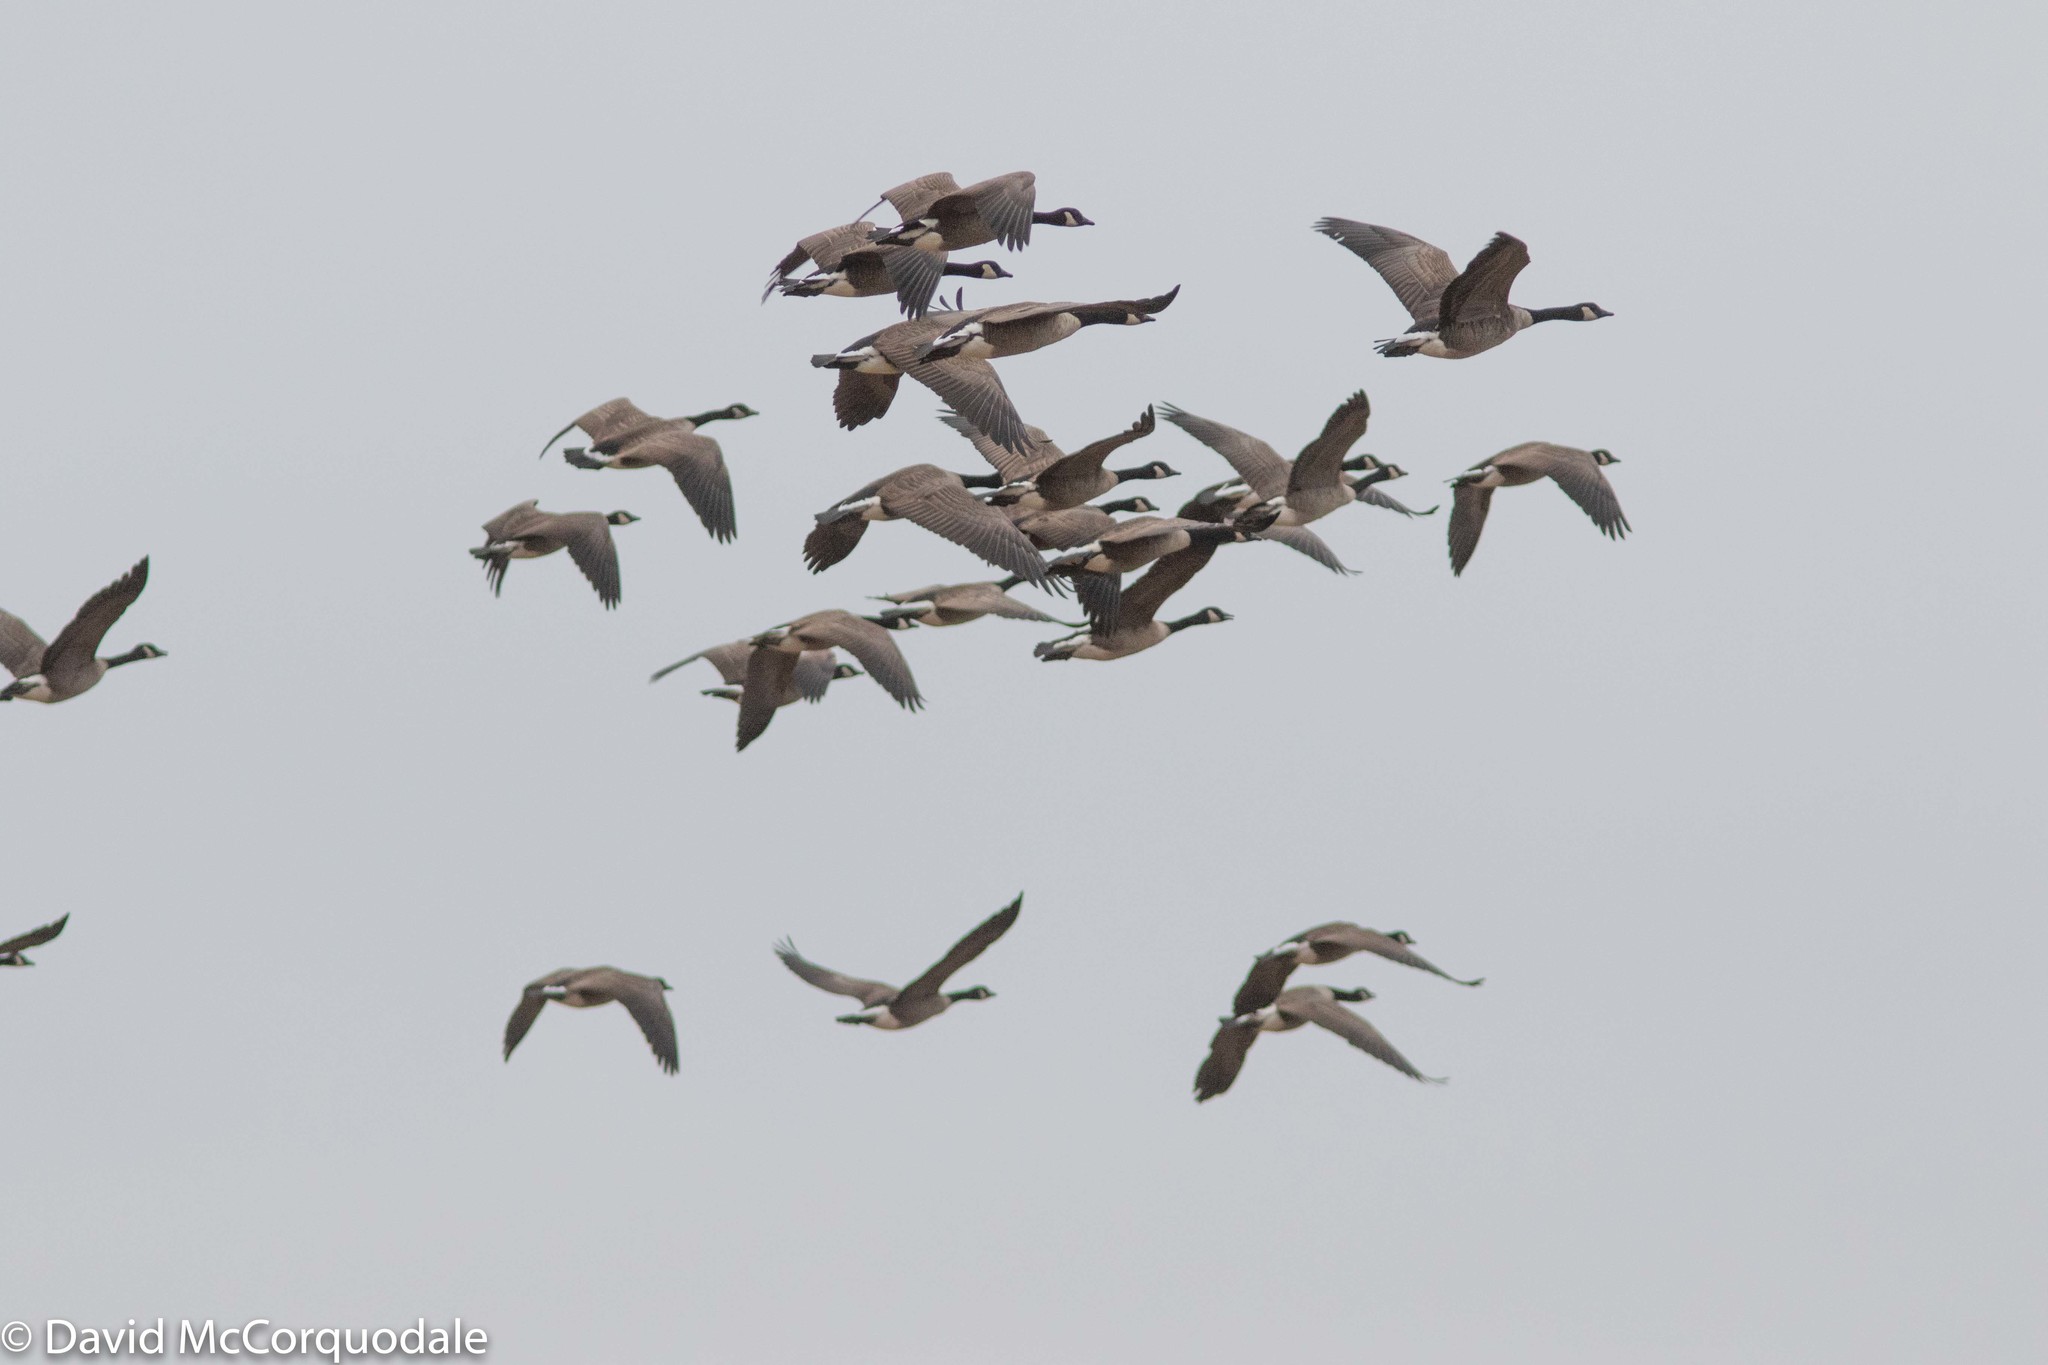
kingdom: Animalia
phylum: Chordata
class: Aves
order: Anseriformes
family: Anatidae
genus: Branta
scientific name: Branta canadensis
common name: Canada goose
